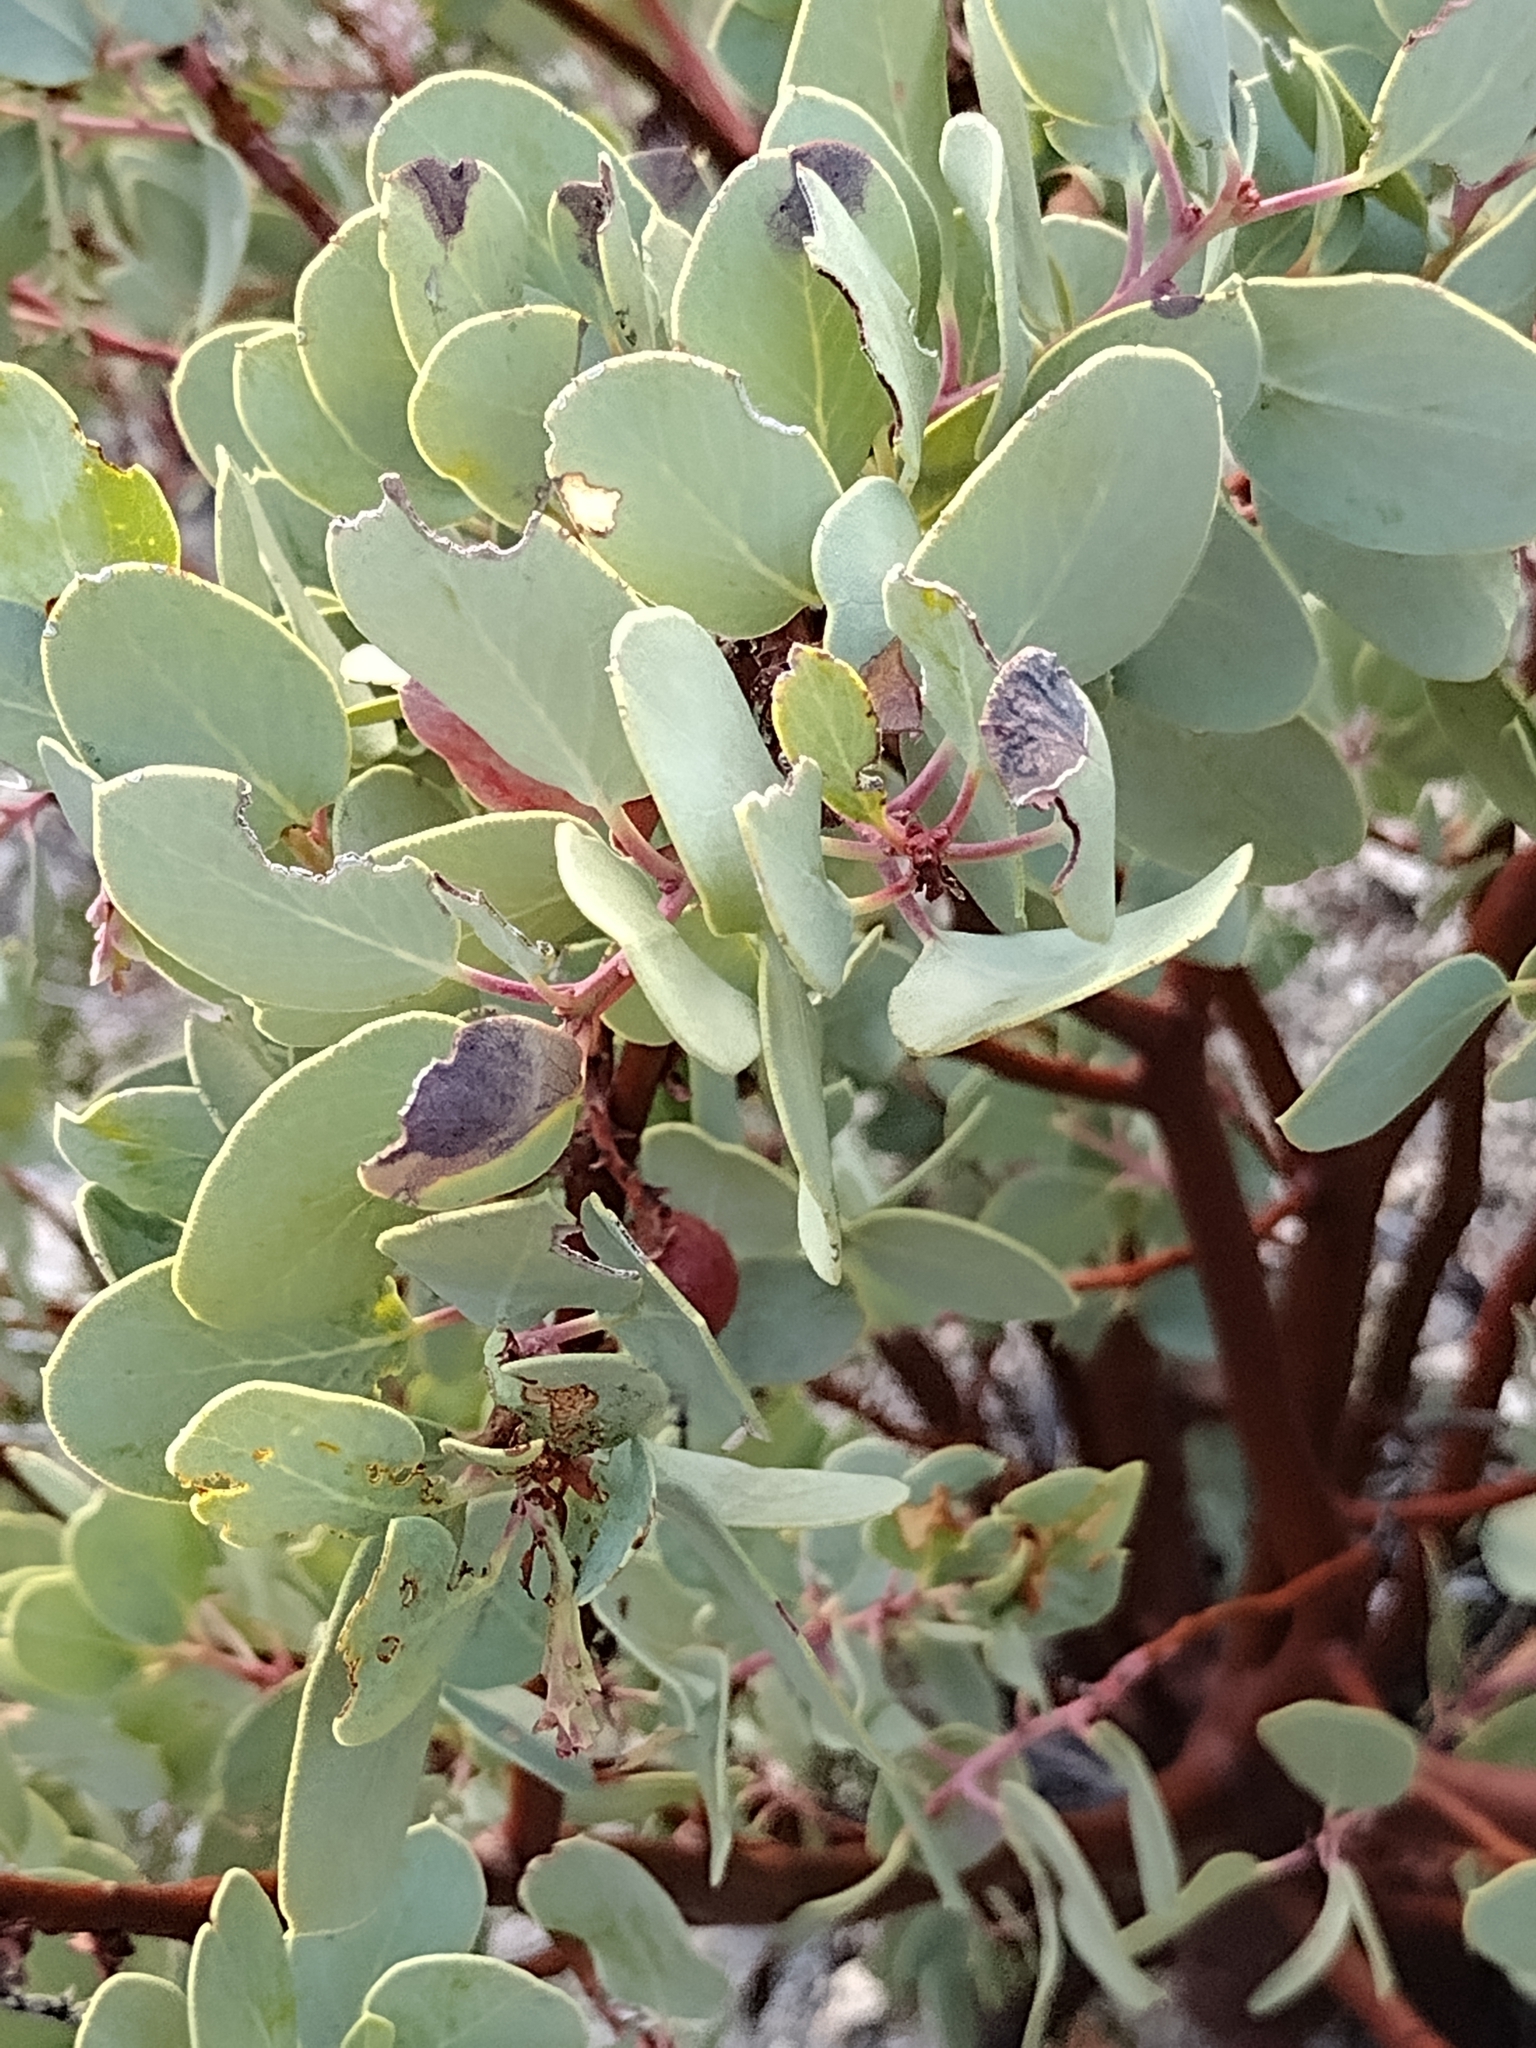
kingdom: Plantae
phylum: Tracheophyta
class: Magnoliopsida
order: Ericales
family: Ericaceae
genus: Arctostaphylos
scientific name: Arctostaphylos glauca
